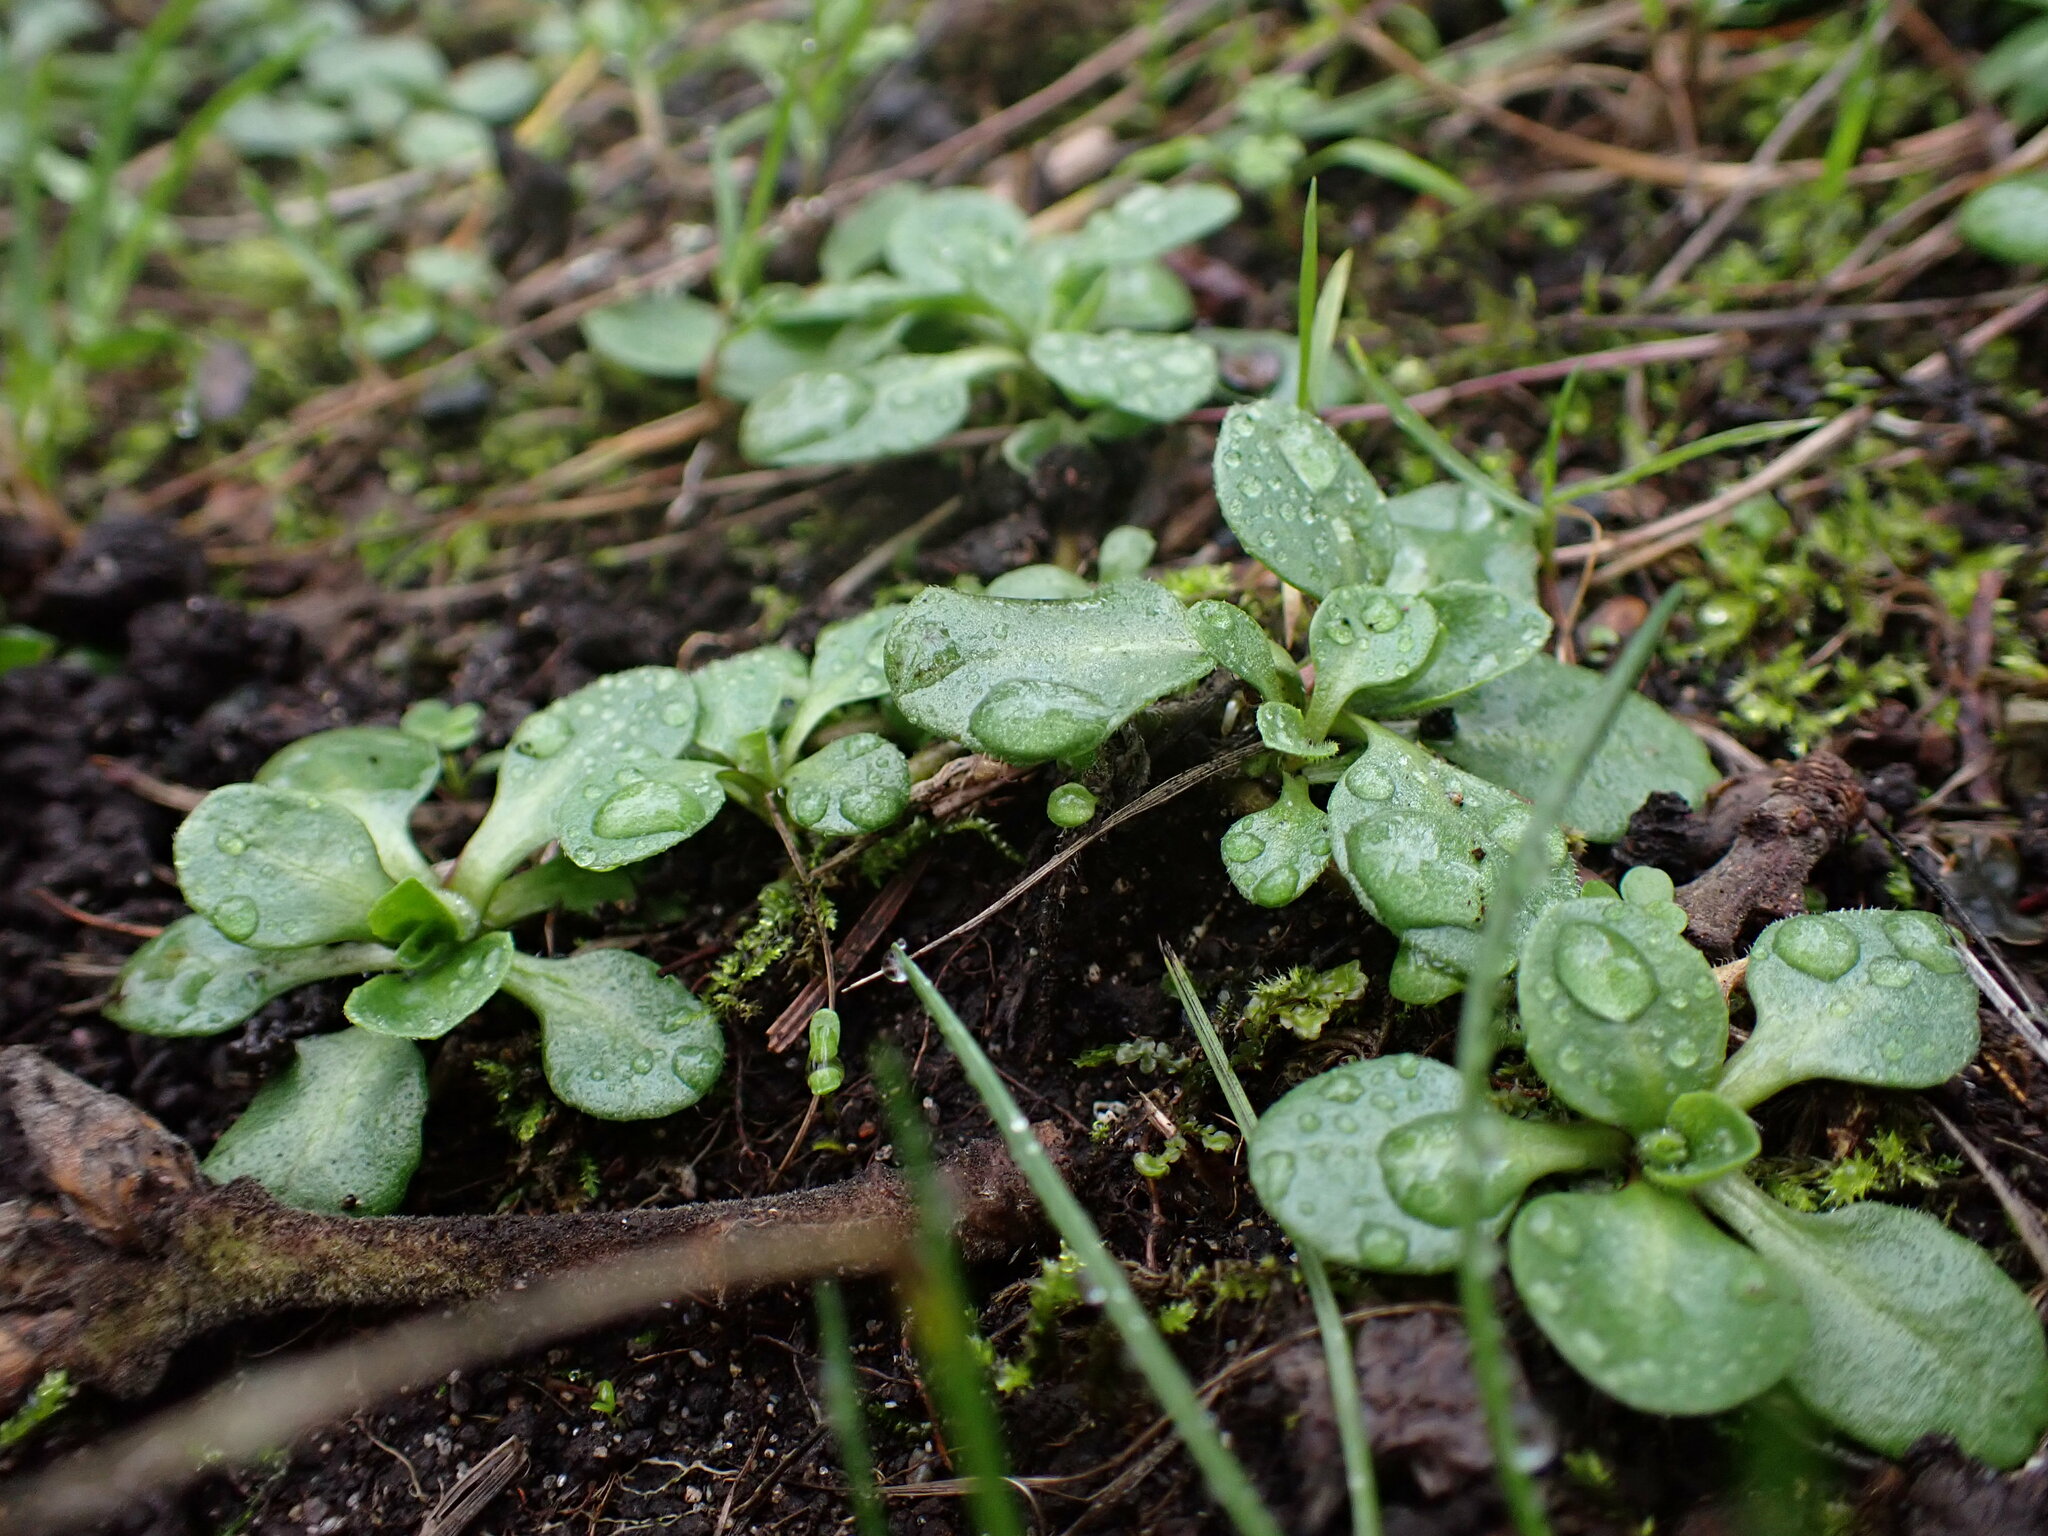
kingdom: Plantae
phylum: Tracheophyta
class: Magnoliopsida
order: Asterales
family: Asteraceae
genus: Bellis
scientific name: Bellis perennis
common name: Lawndaisy
